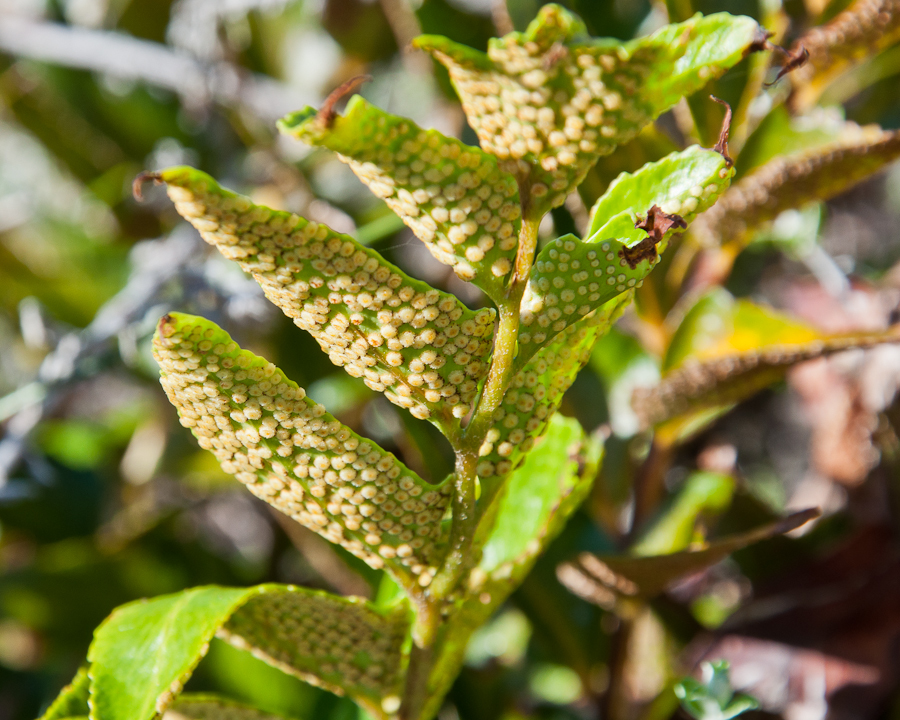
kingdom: Plantae
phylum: Tracheophyta
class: Polypodiopsida
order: Polypodiales
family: Dryopteridaceae
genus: Cyrtomium
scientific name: Cyrtomium falcatum
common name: House holly-fern
